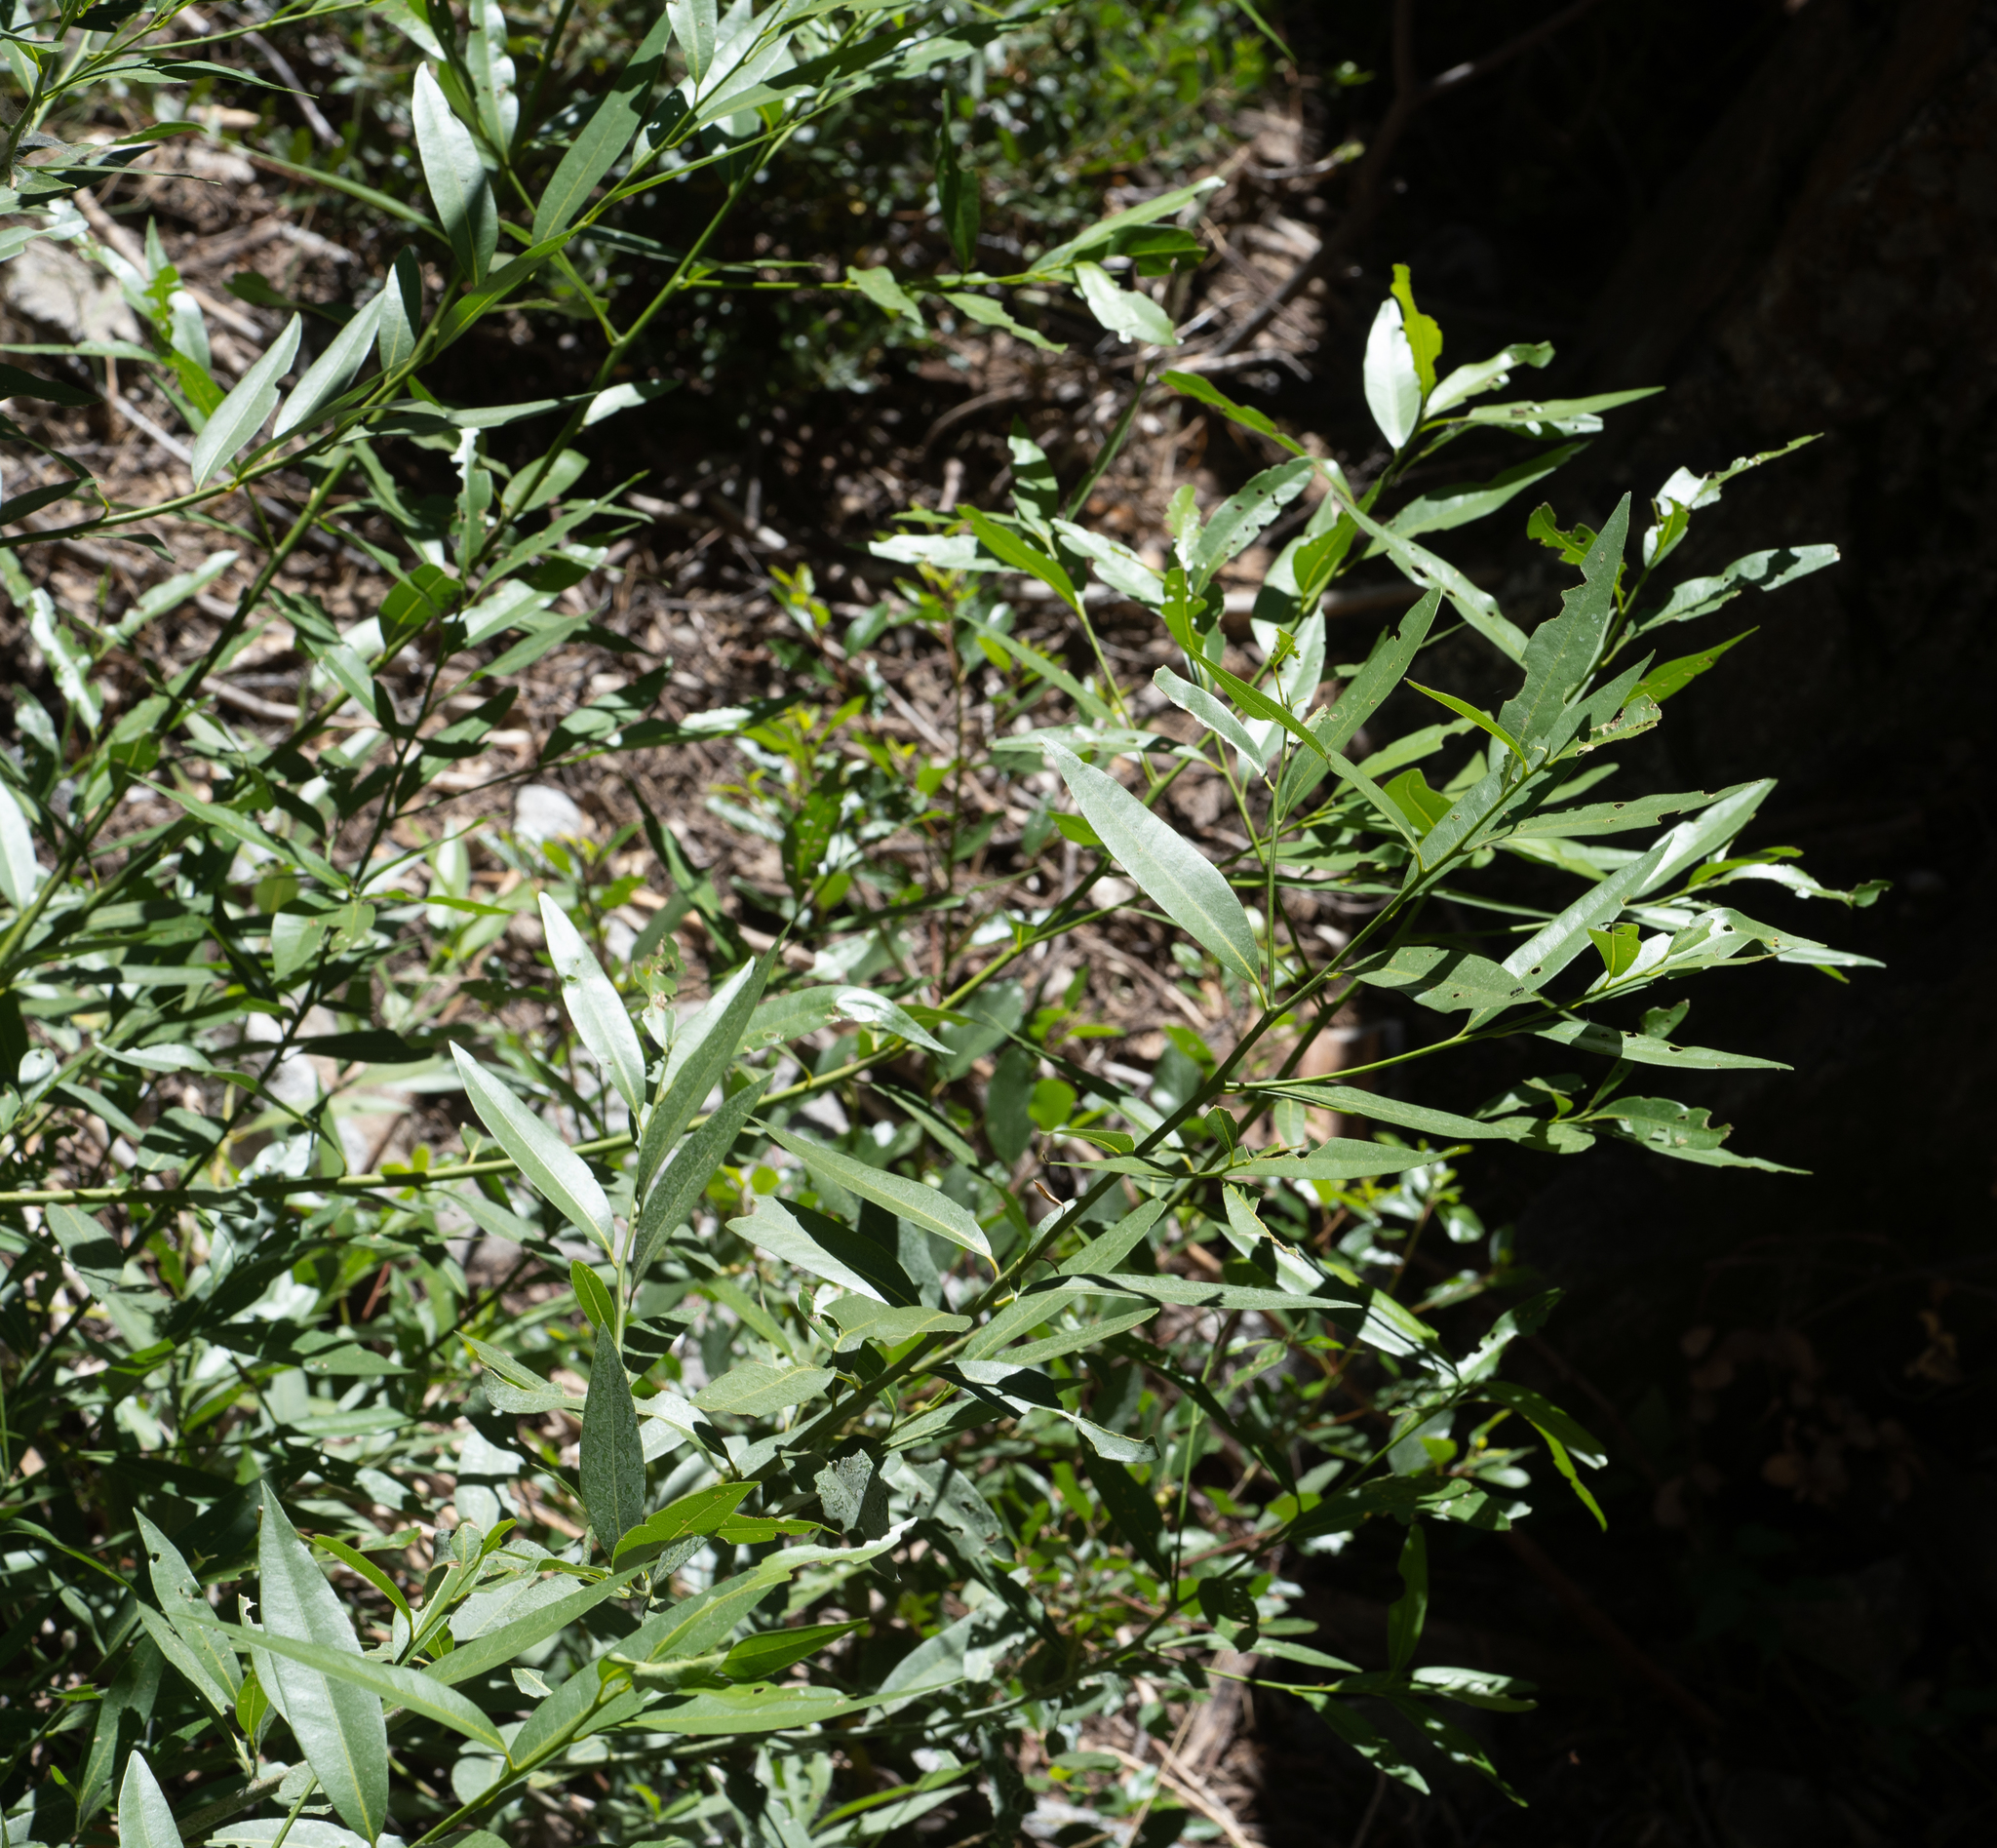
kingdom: Plantae
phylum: Tracheophyta
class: Magnoliopsida
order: Laurales
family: Lauraceae
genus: Umbellularia
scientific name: Umbellularia californica
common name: California bay
